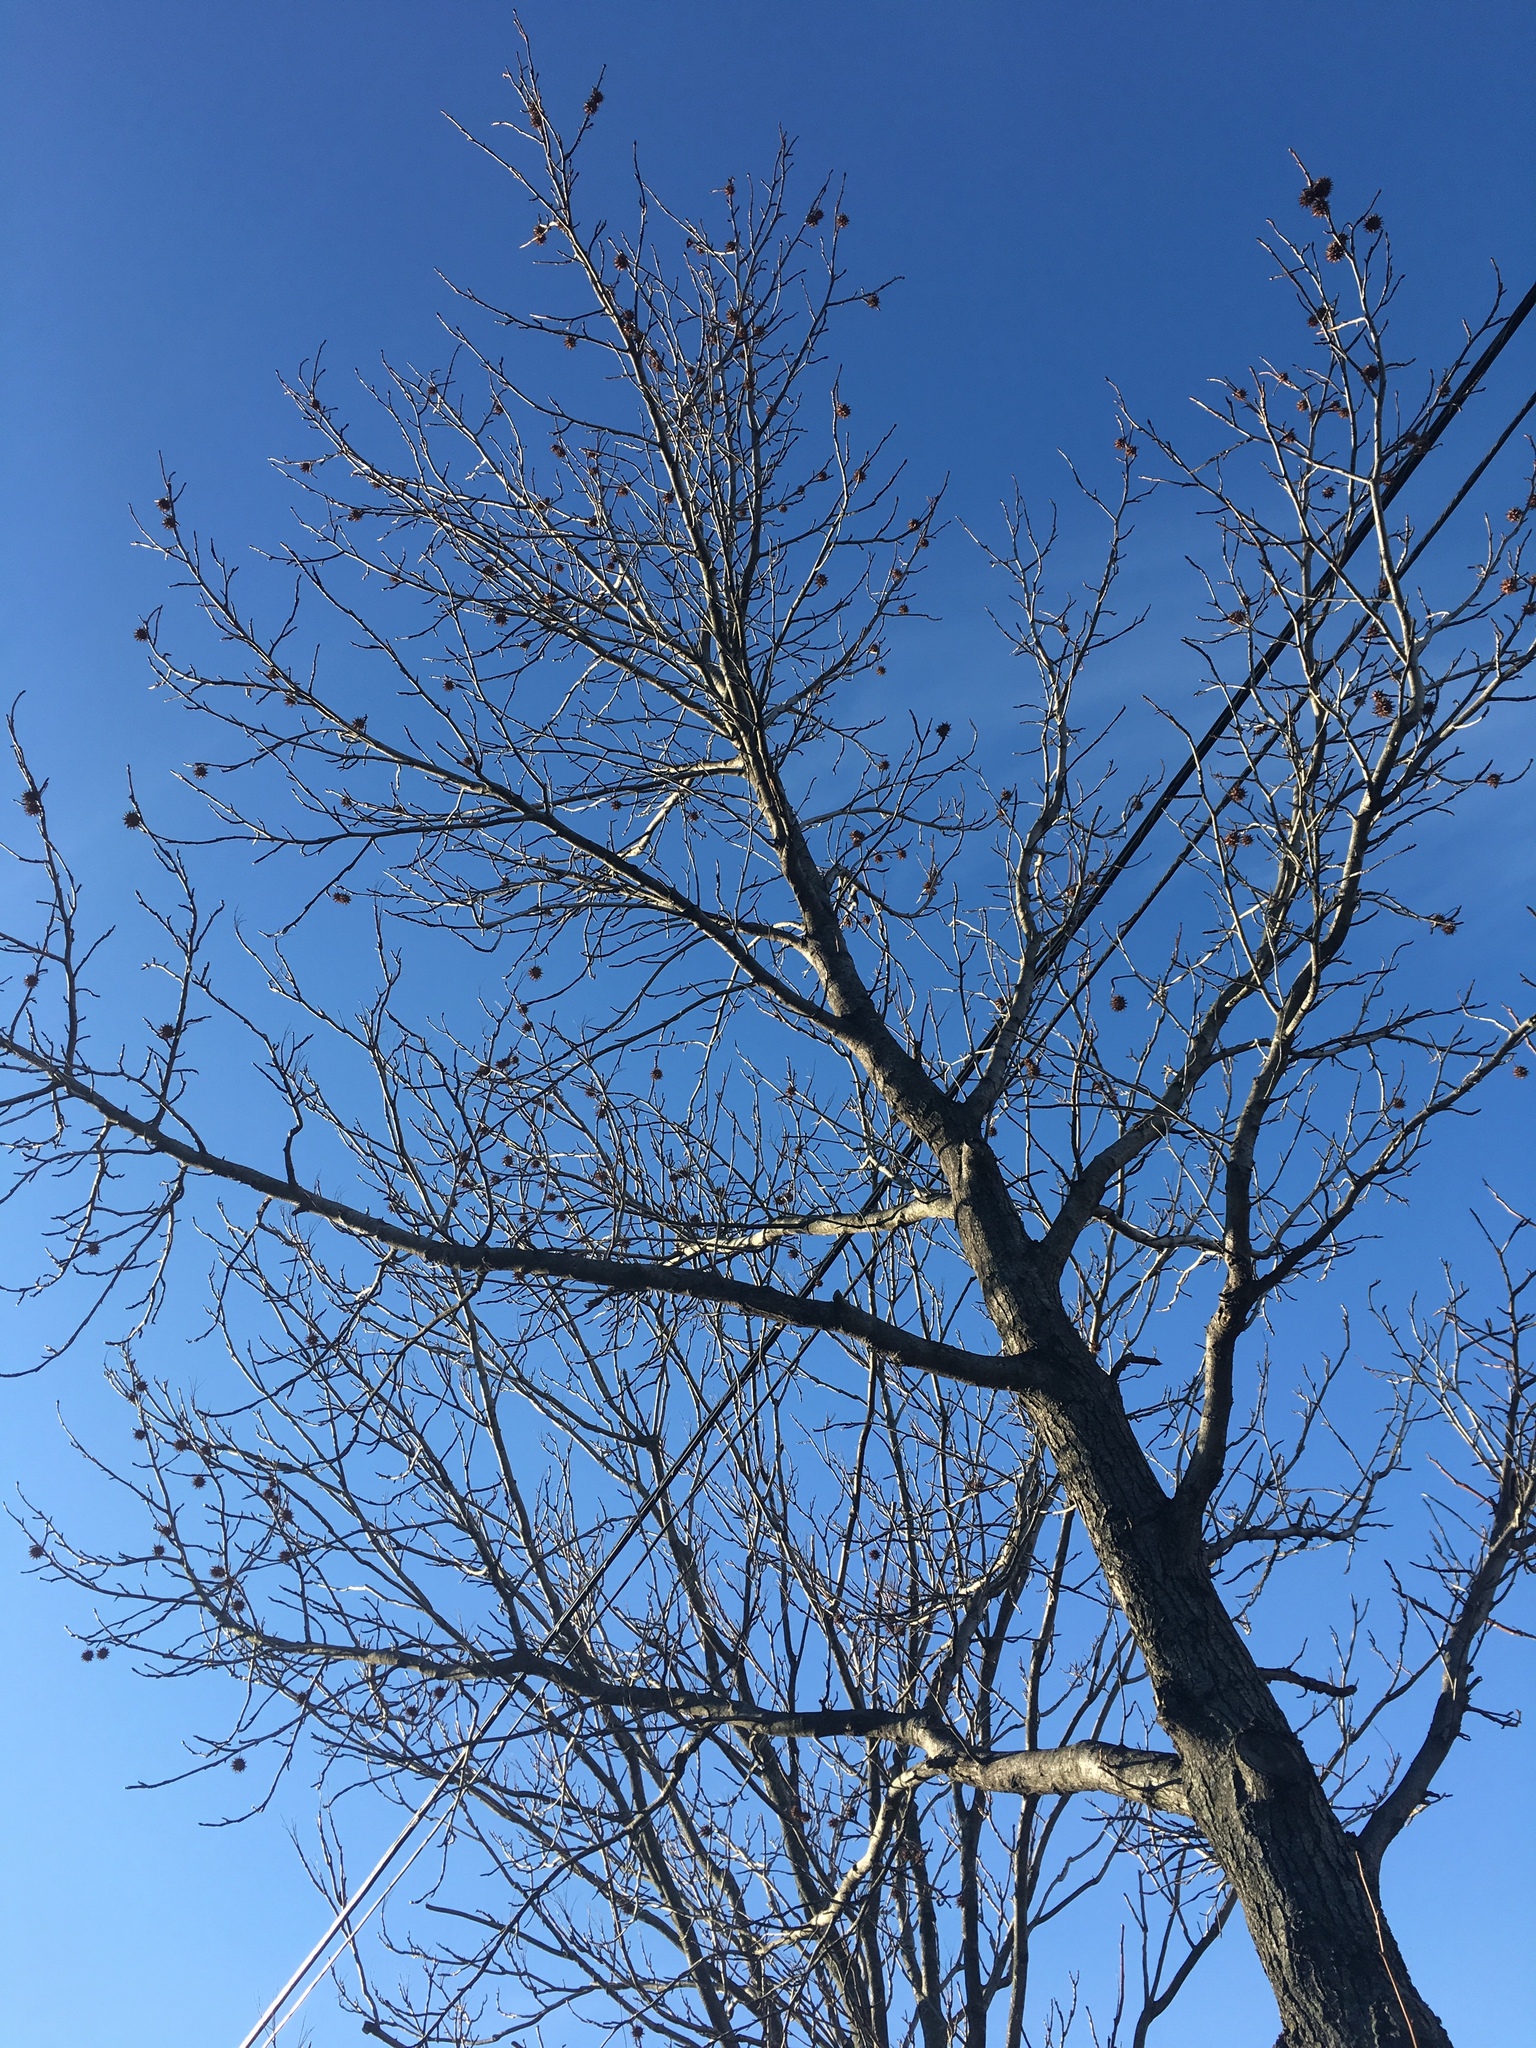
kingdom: Plantae
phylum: Tracheophyta
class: Magnoliopsida
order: Saxifragales
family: Altingiaceae
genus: Liquidambar
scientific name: Liquidambar styraciflua
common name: Sweet gum
